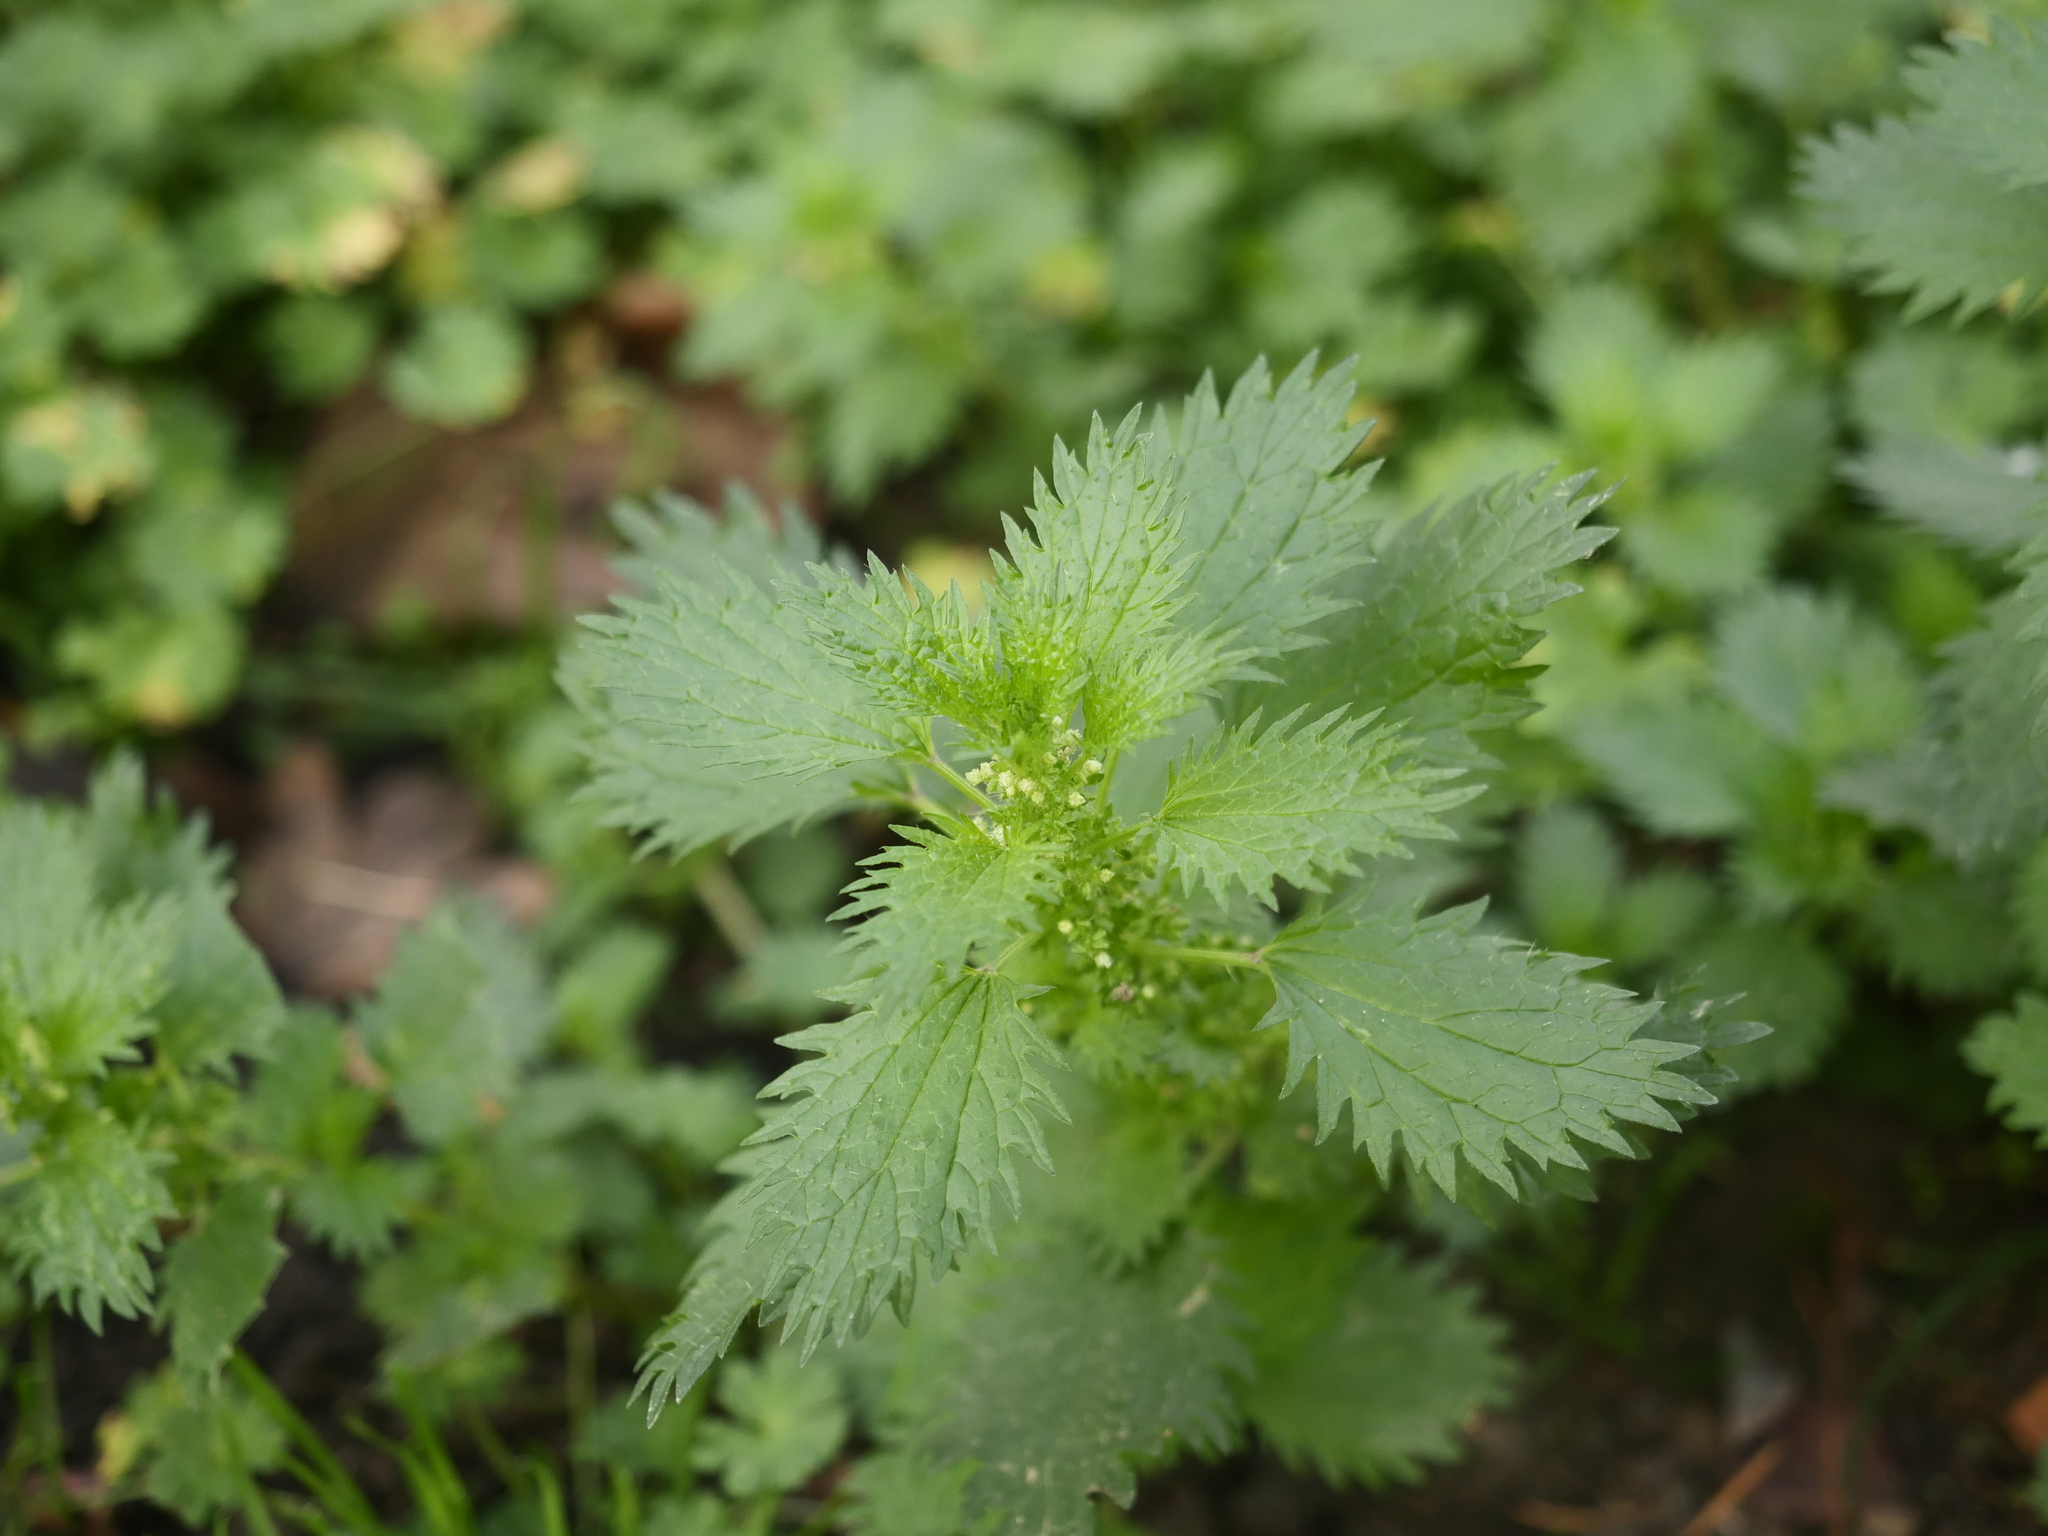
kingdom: Plantae
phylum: Tracheophyta
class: Magnoliopsida
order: Rosales
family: Urticaceae
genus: Urtica
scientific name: Urtica urens
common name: Dwarf nettle
